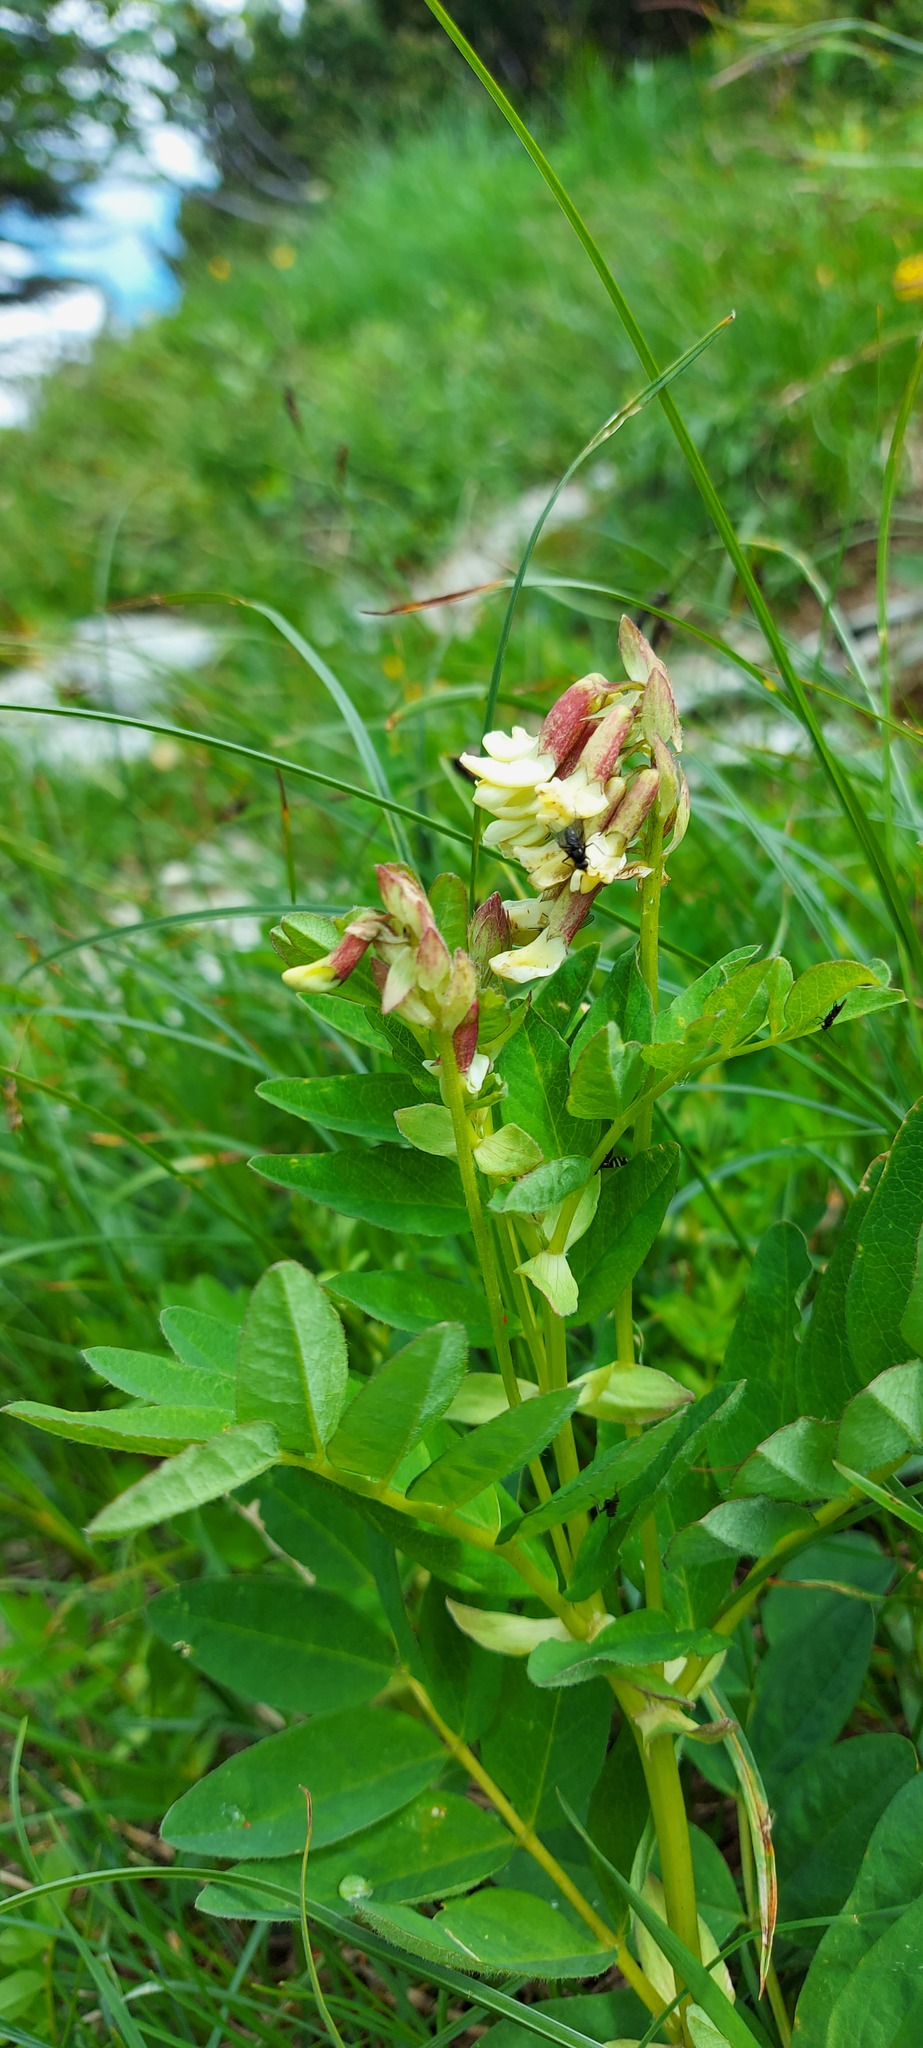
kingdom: Plantae
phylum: Tracheophyta
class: Magnoliopsida
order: Fabales
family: Fabaceae
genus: Astragalus
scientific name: Astragalus frigidus
